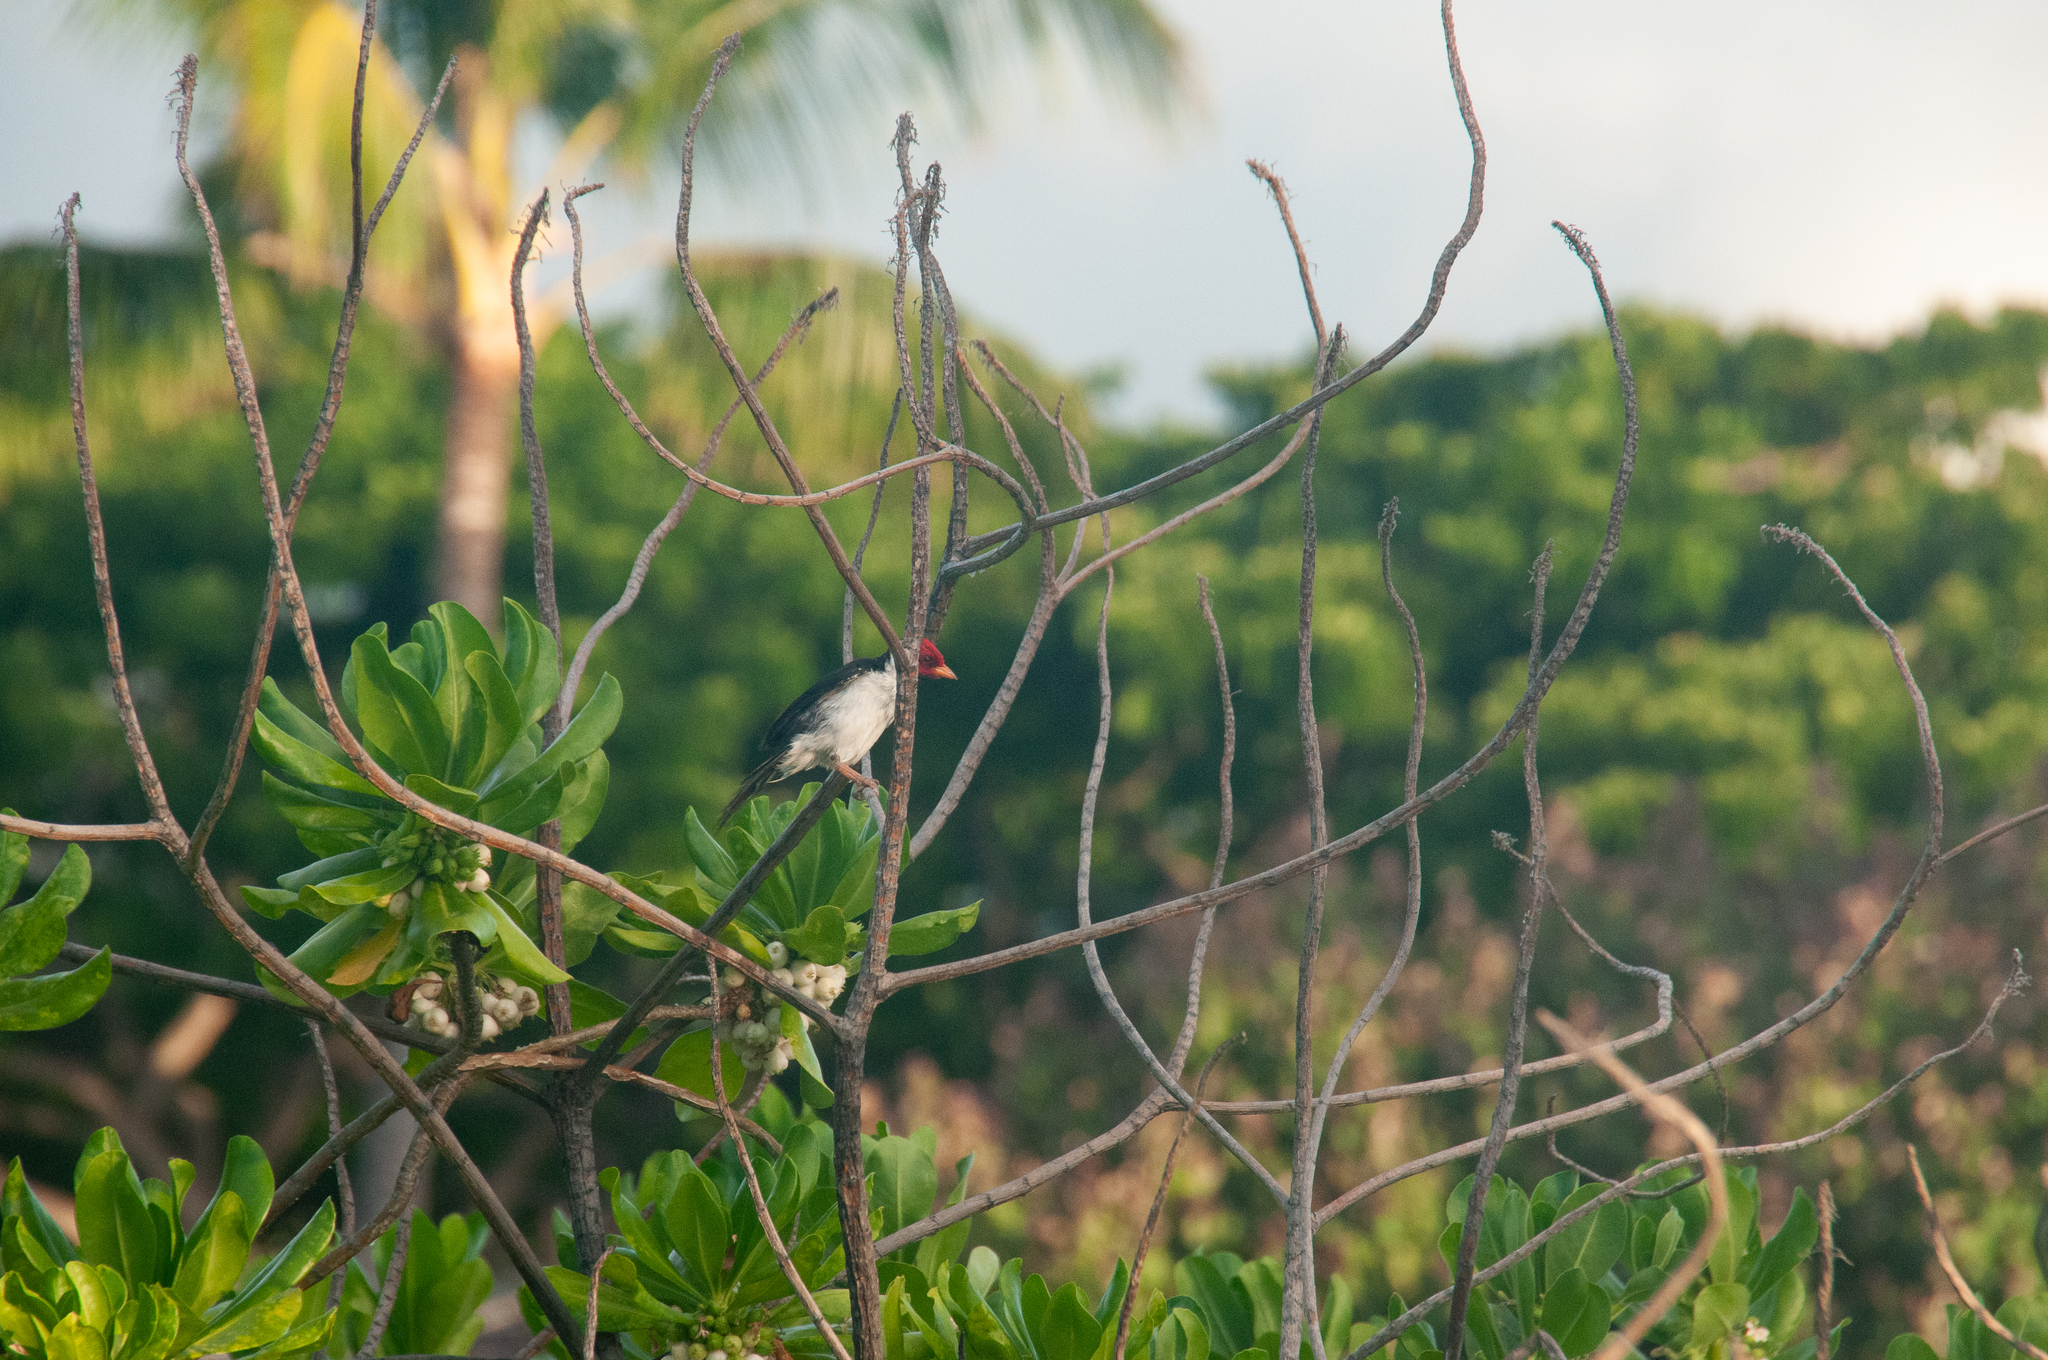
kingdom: Animalia
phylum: Chordata
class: Aves
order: Passeriformes
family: Thraupidae
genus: Paroaria
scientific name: Paroaria capitata
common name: Yellow-billed cardinal
